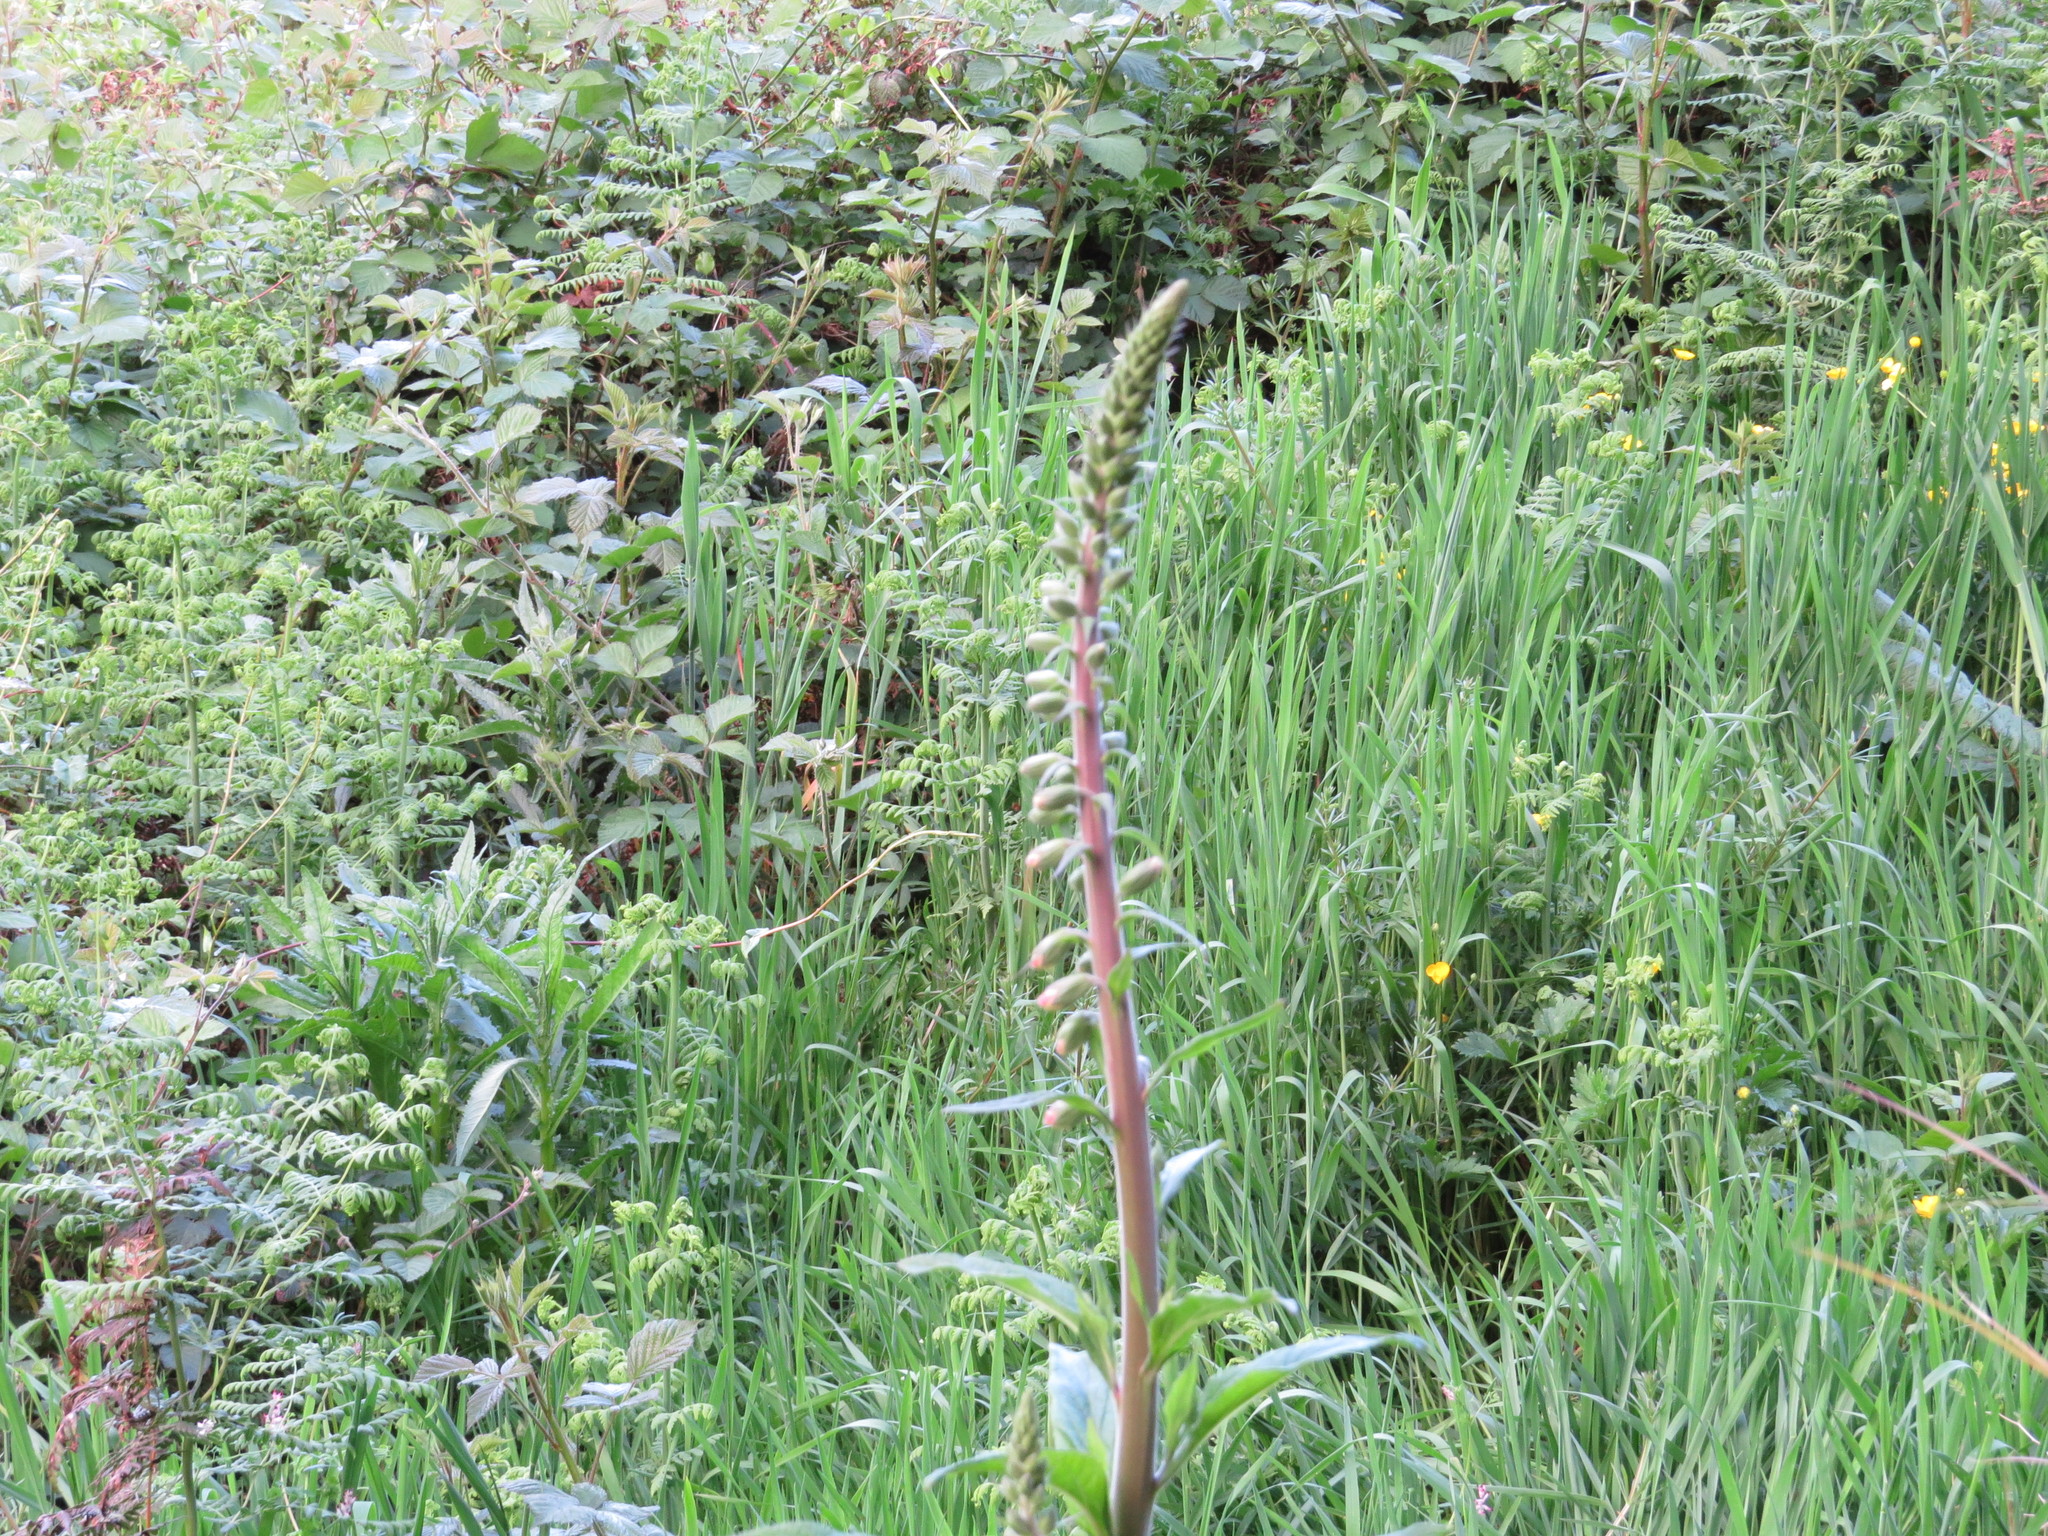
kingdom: Plantae
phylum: Tracheophyta
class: Magnoliopsida
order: Lamiales
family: Plantaginaceae
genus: Digitalis
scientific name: Digitalis purpurea
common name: Foxglove
